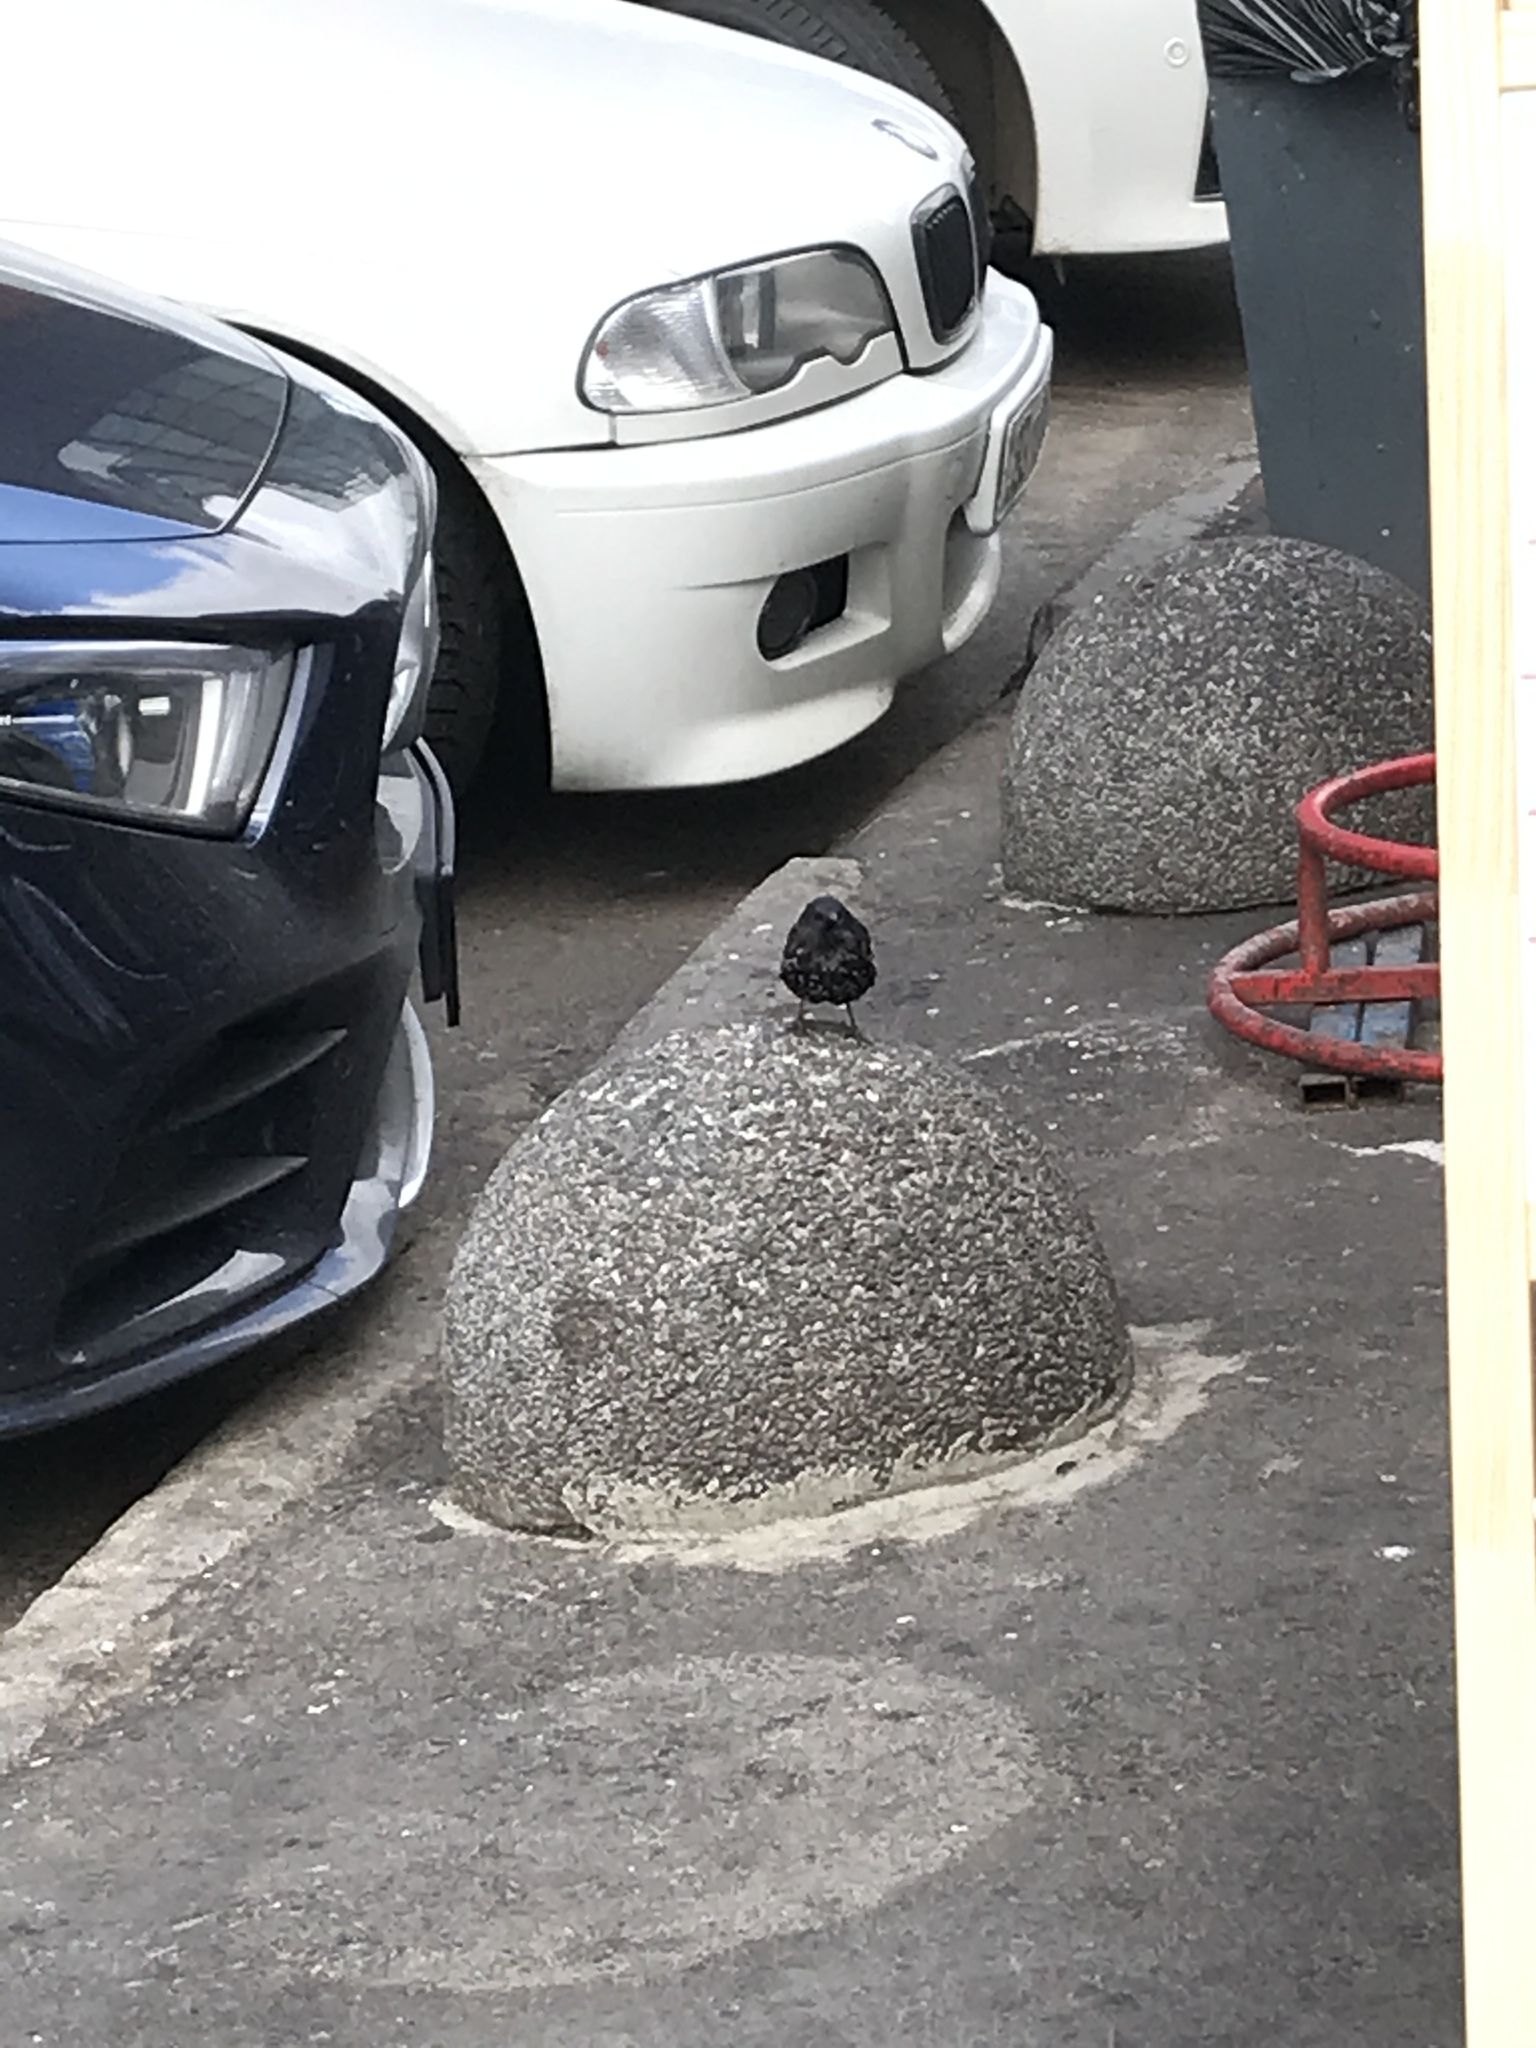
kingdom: Animalia
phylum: Chordata
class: Aves
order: Passeriformes
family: Sturnidae
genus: Sturnus
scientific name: Sturnus vulgaris
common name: Common starling
